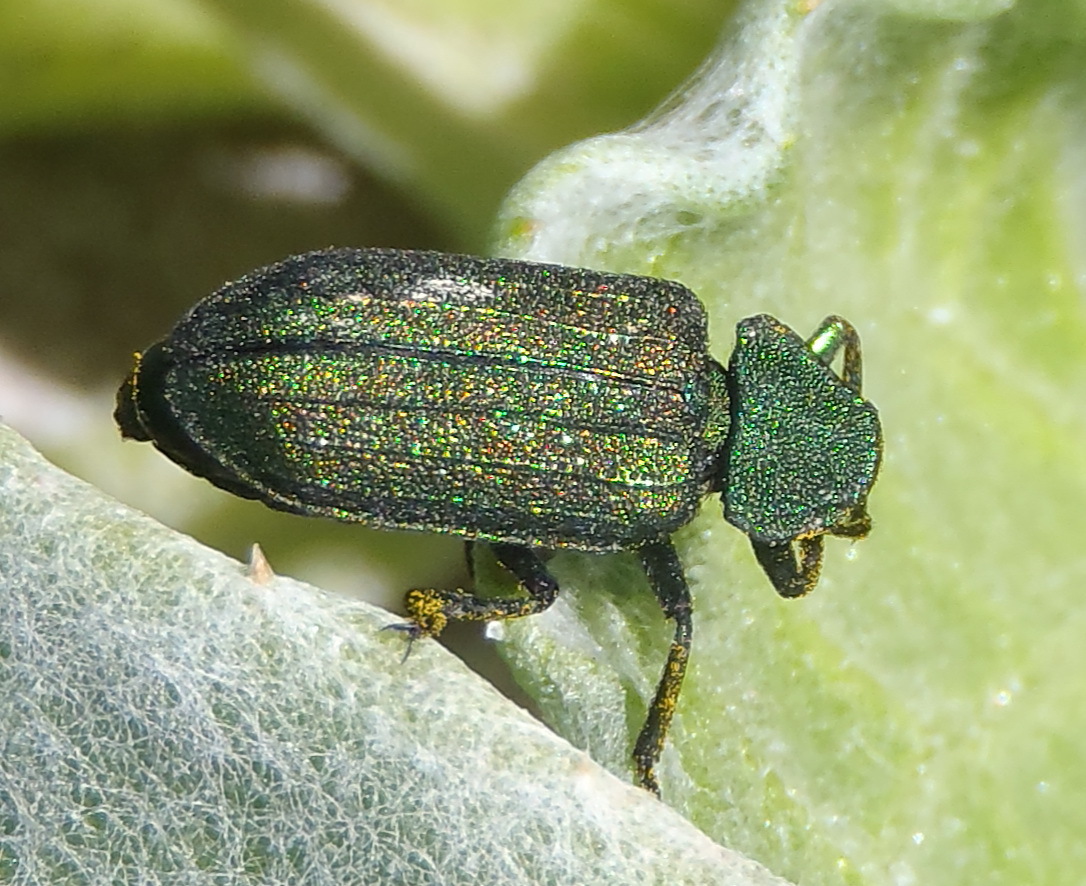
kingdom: Animalia
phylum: Arthropoda
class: Insecta
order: Coleoptera
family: Melyridae
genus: Melyris
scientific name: Melyris viridis
